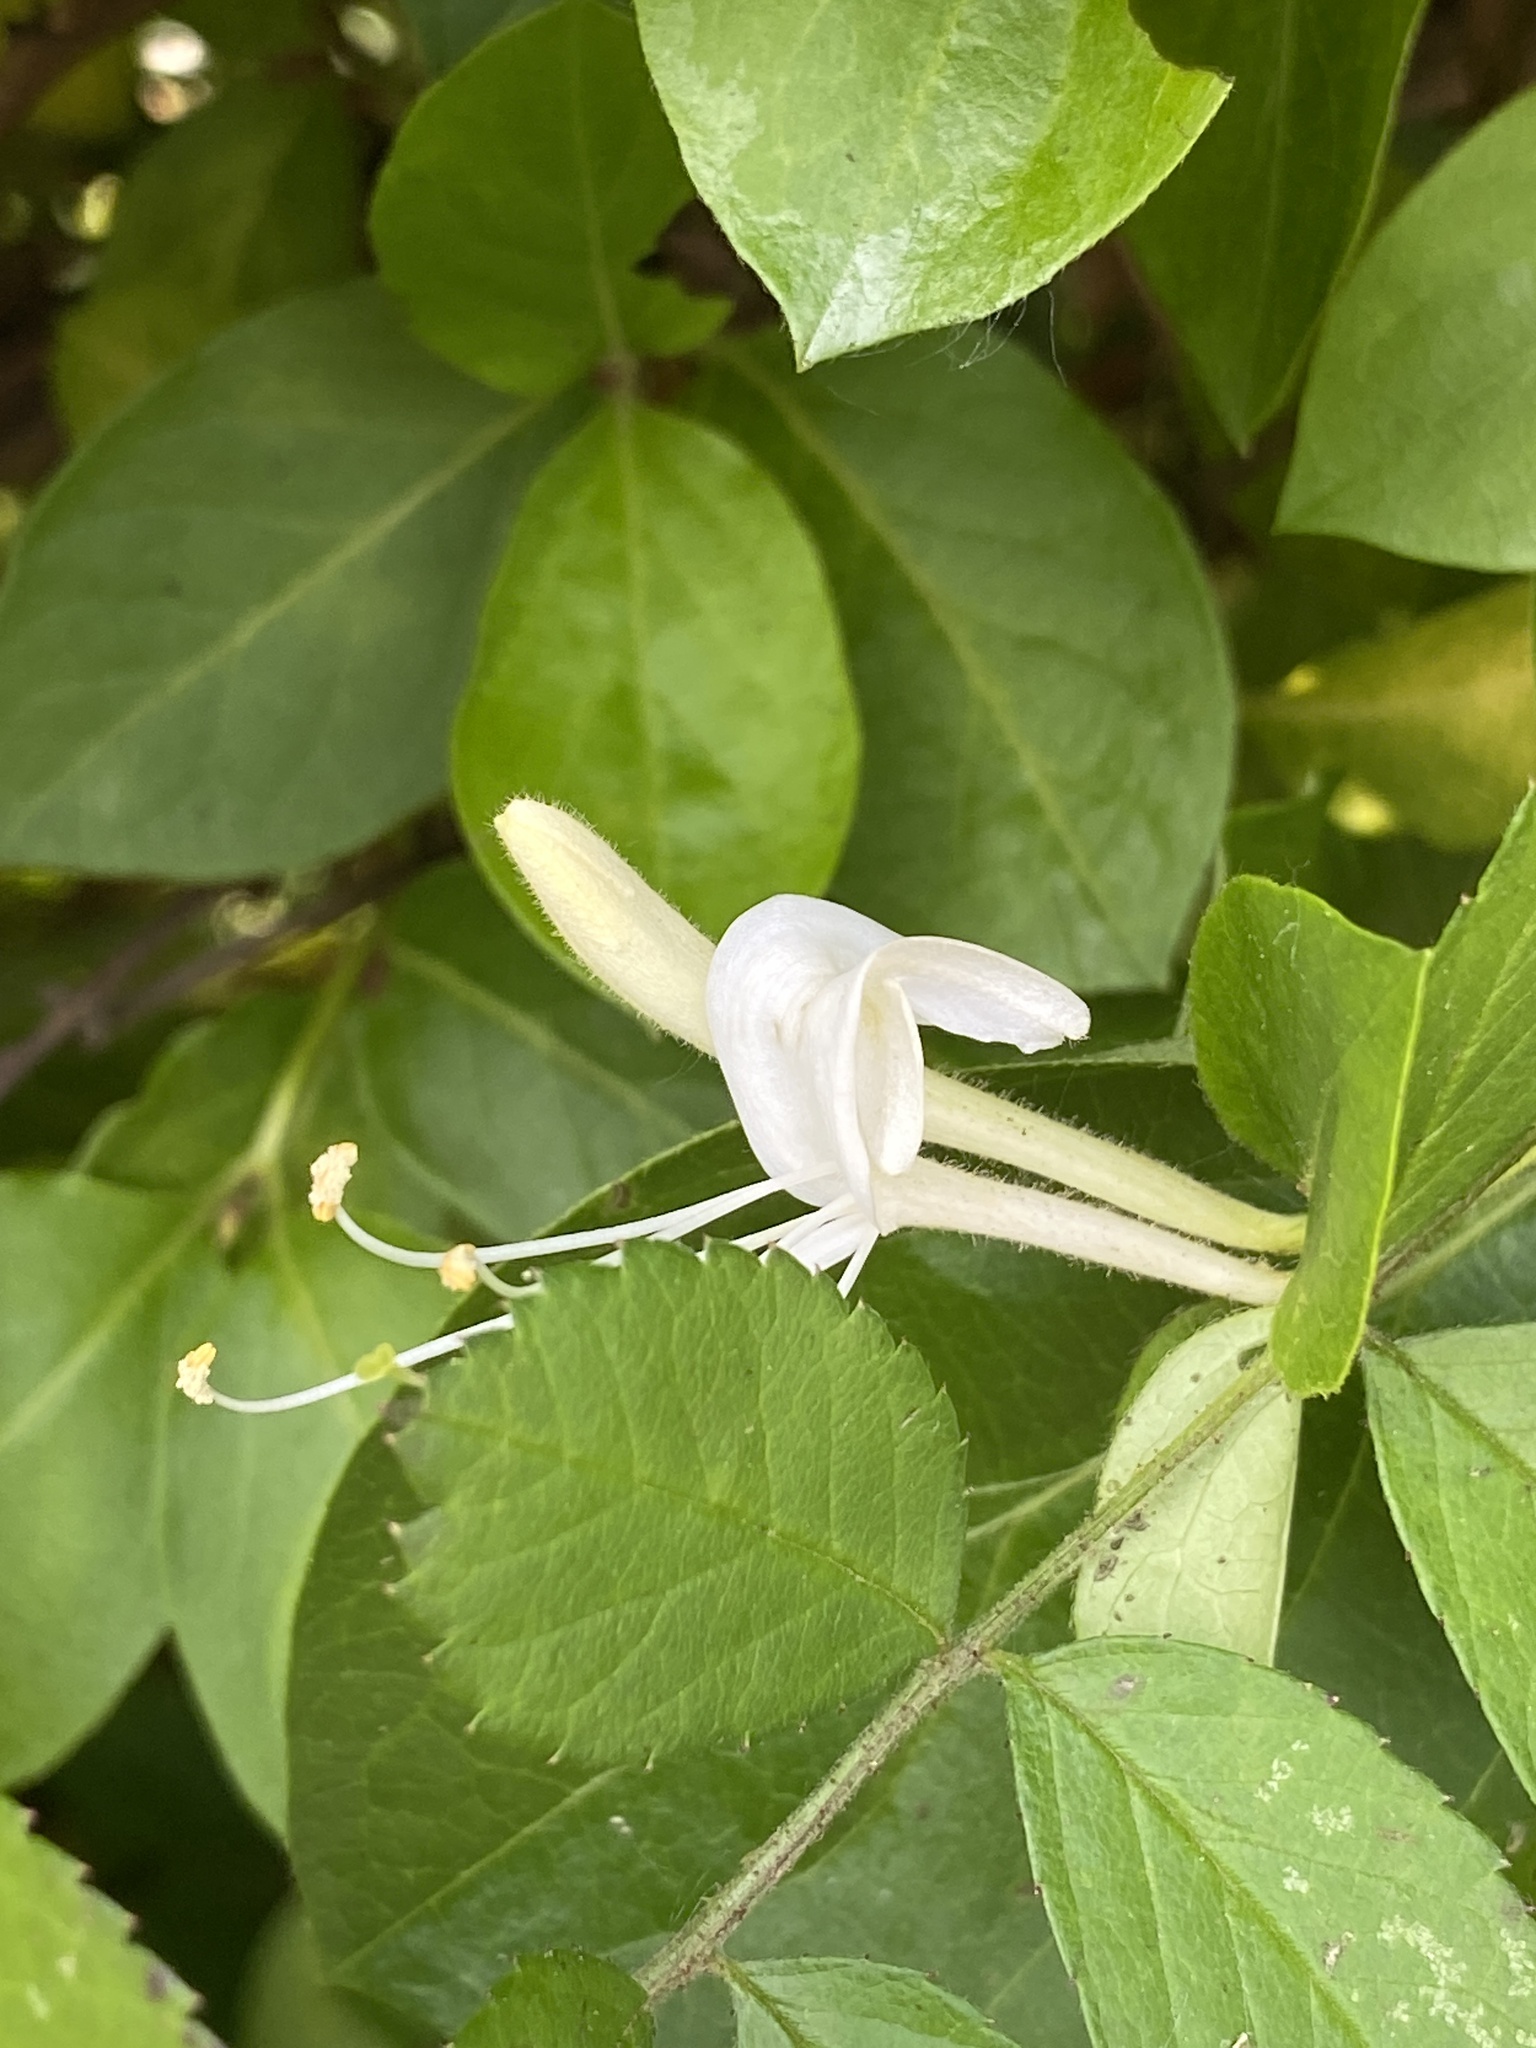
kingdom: Plantae
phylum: Tracheophyta
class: Magnoliopsida
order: Dipsacales
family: Caprifoliaceae
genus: Lonicera
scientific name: Lonicera japonica
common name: Japanese honeysuckle
